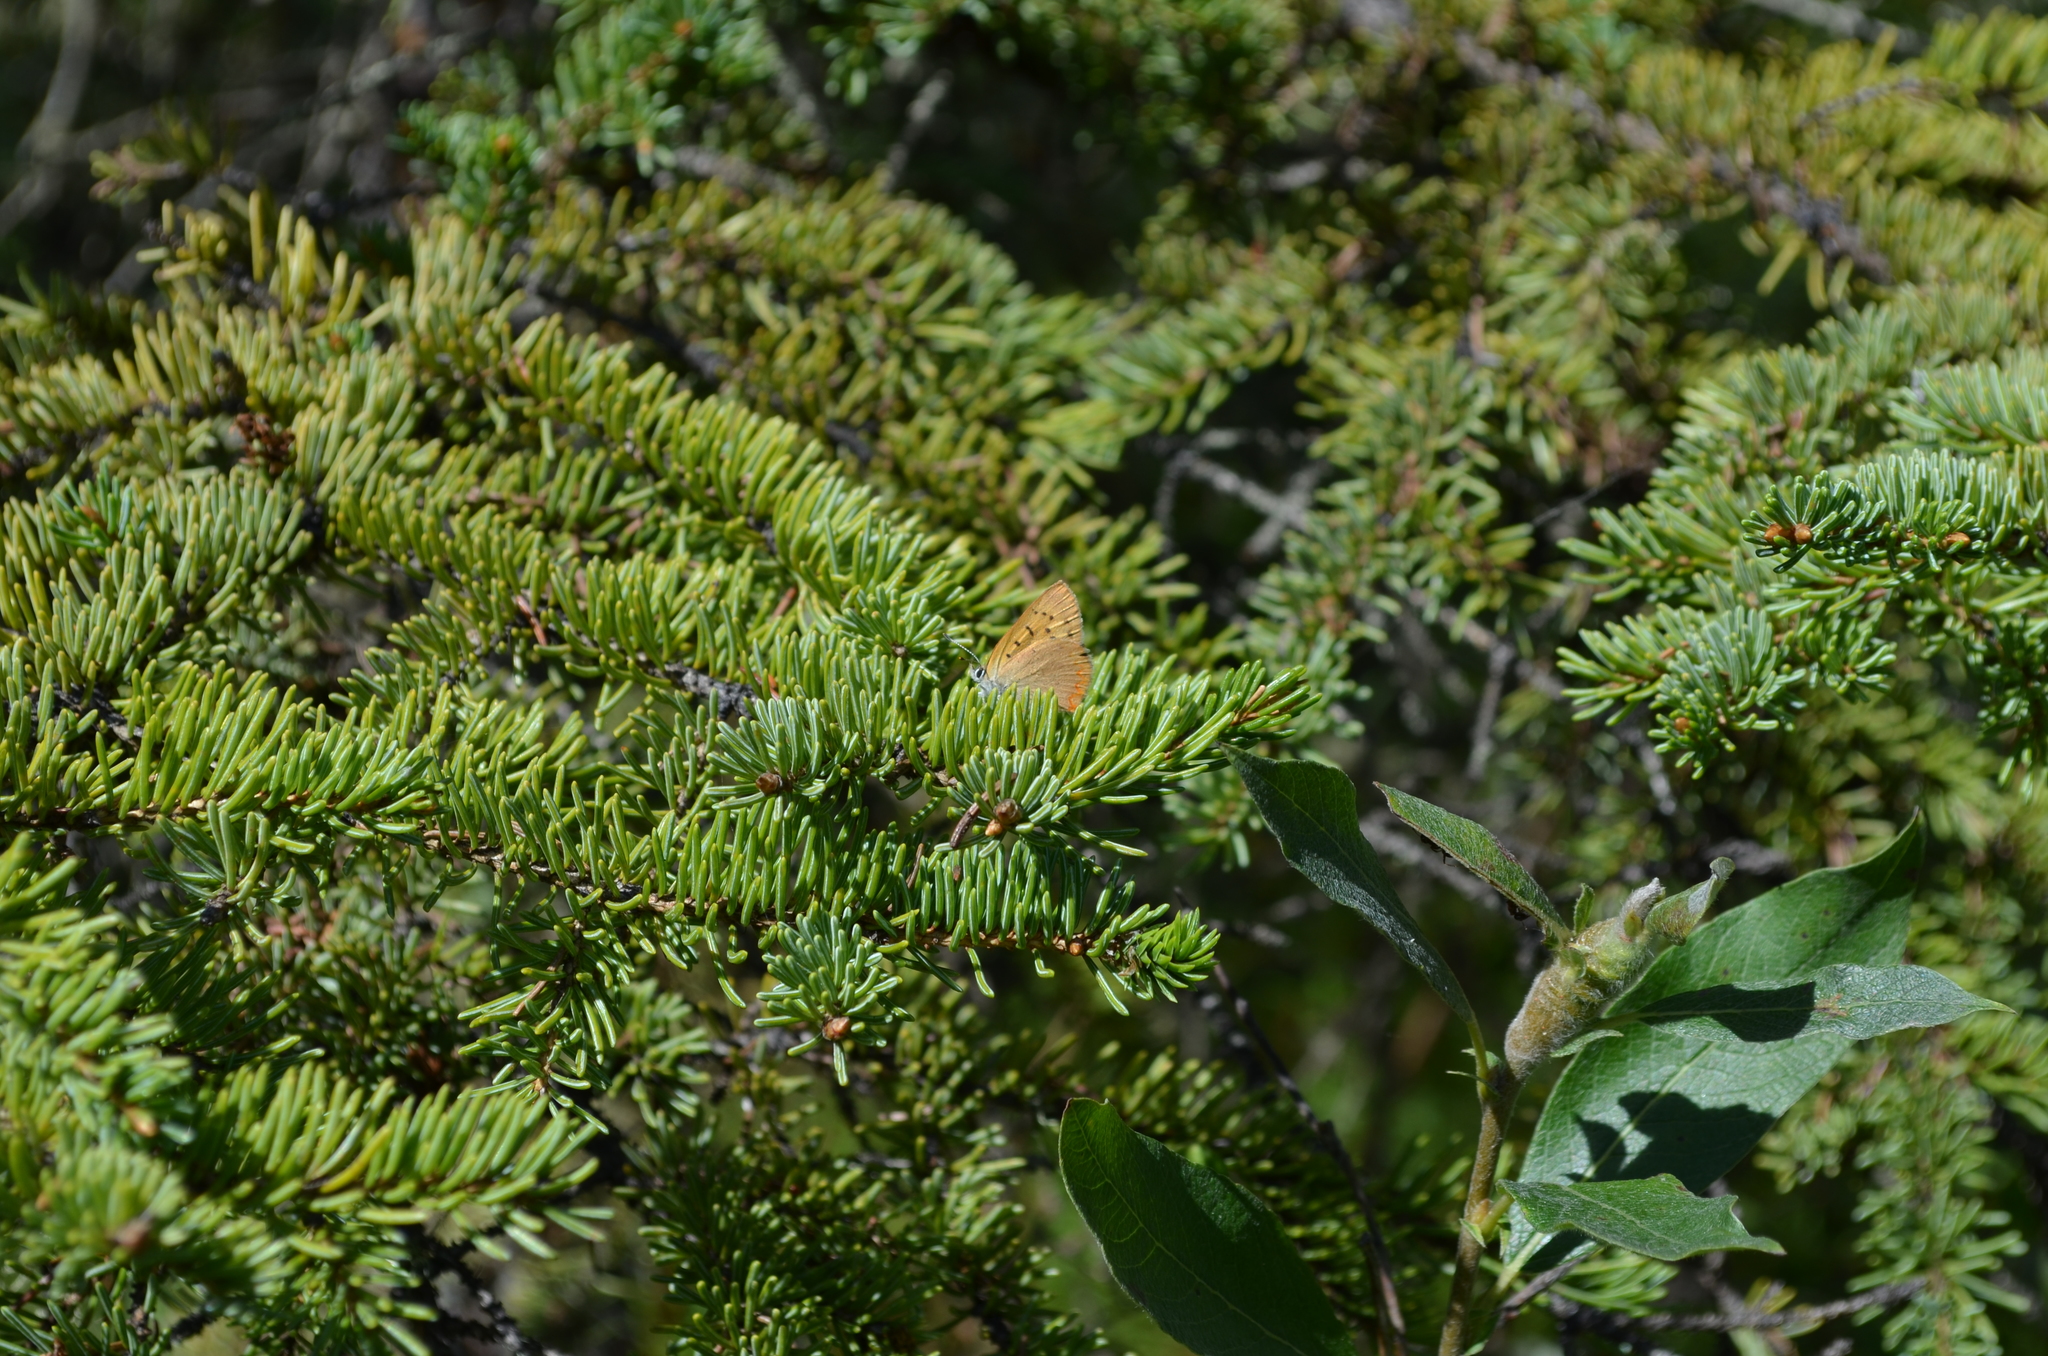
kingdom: Animalia
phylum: Arthropoda
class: Insecta
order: Lepidoptera
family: Lycaenidae
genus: Tharsalea
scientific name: Tharsalea dorcas
